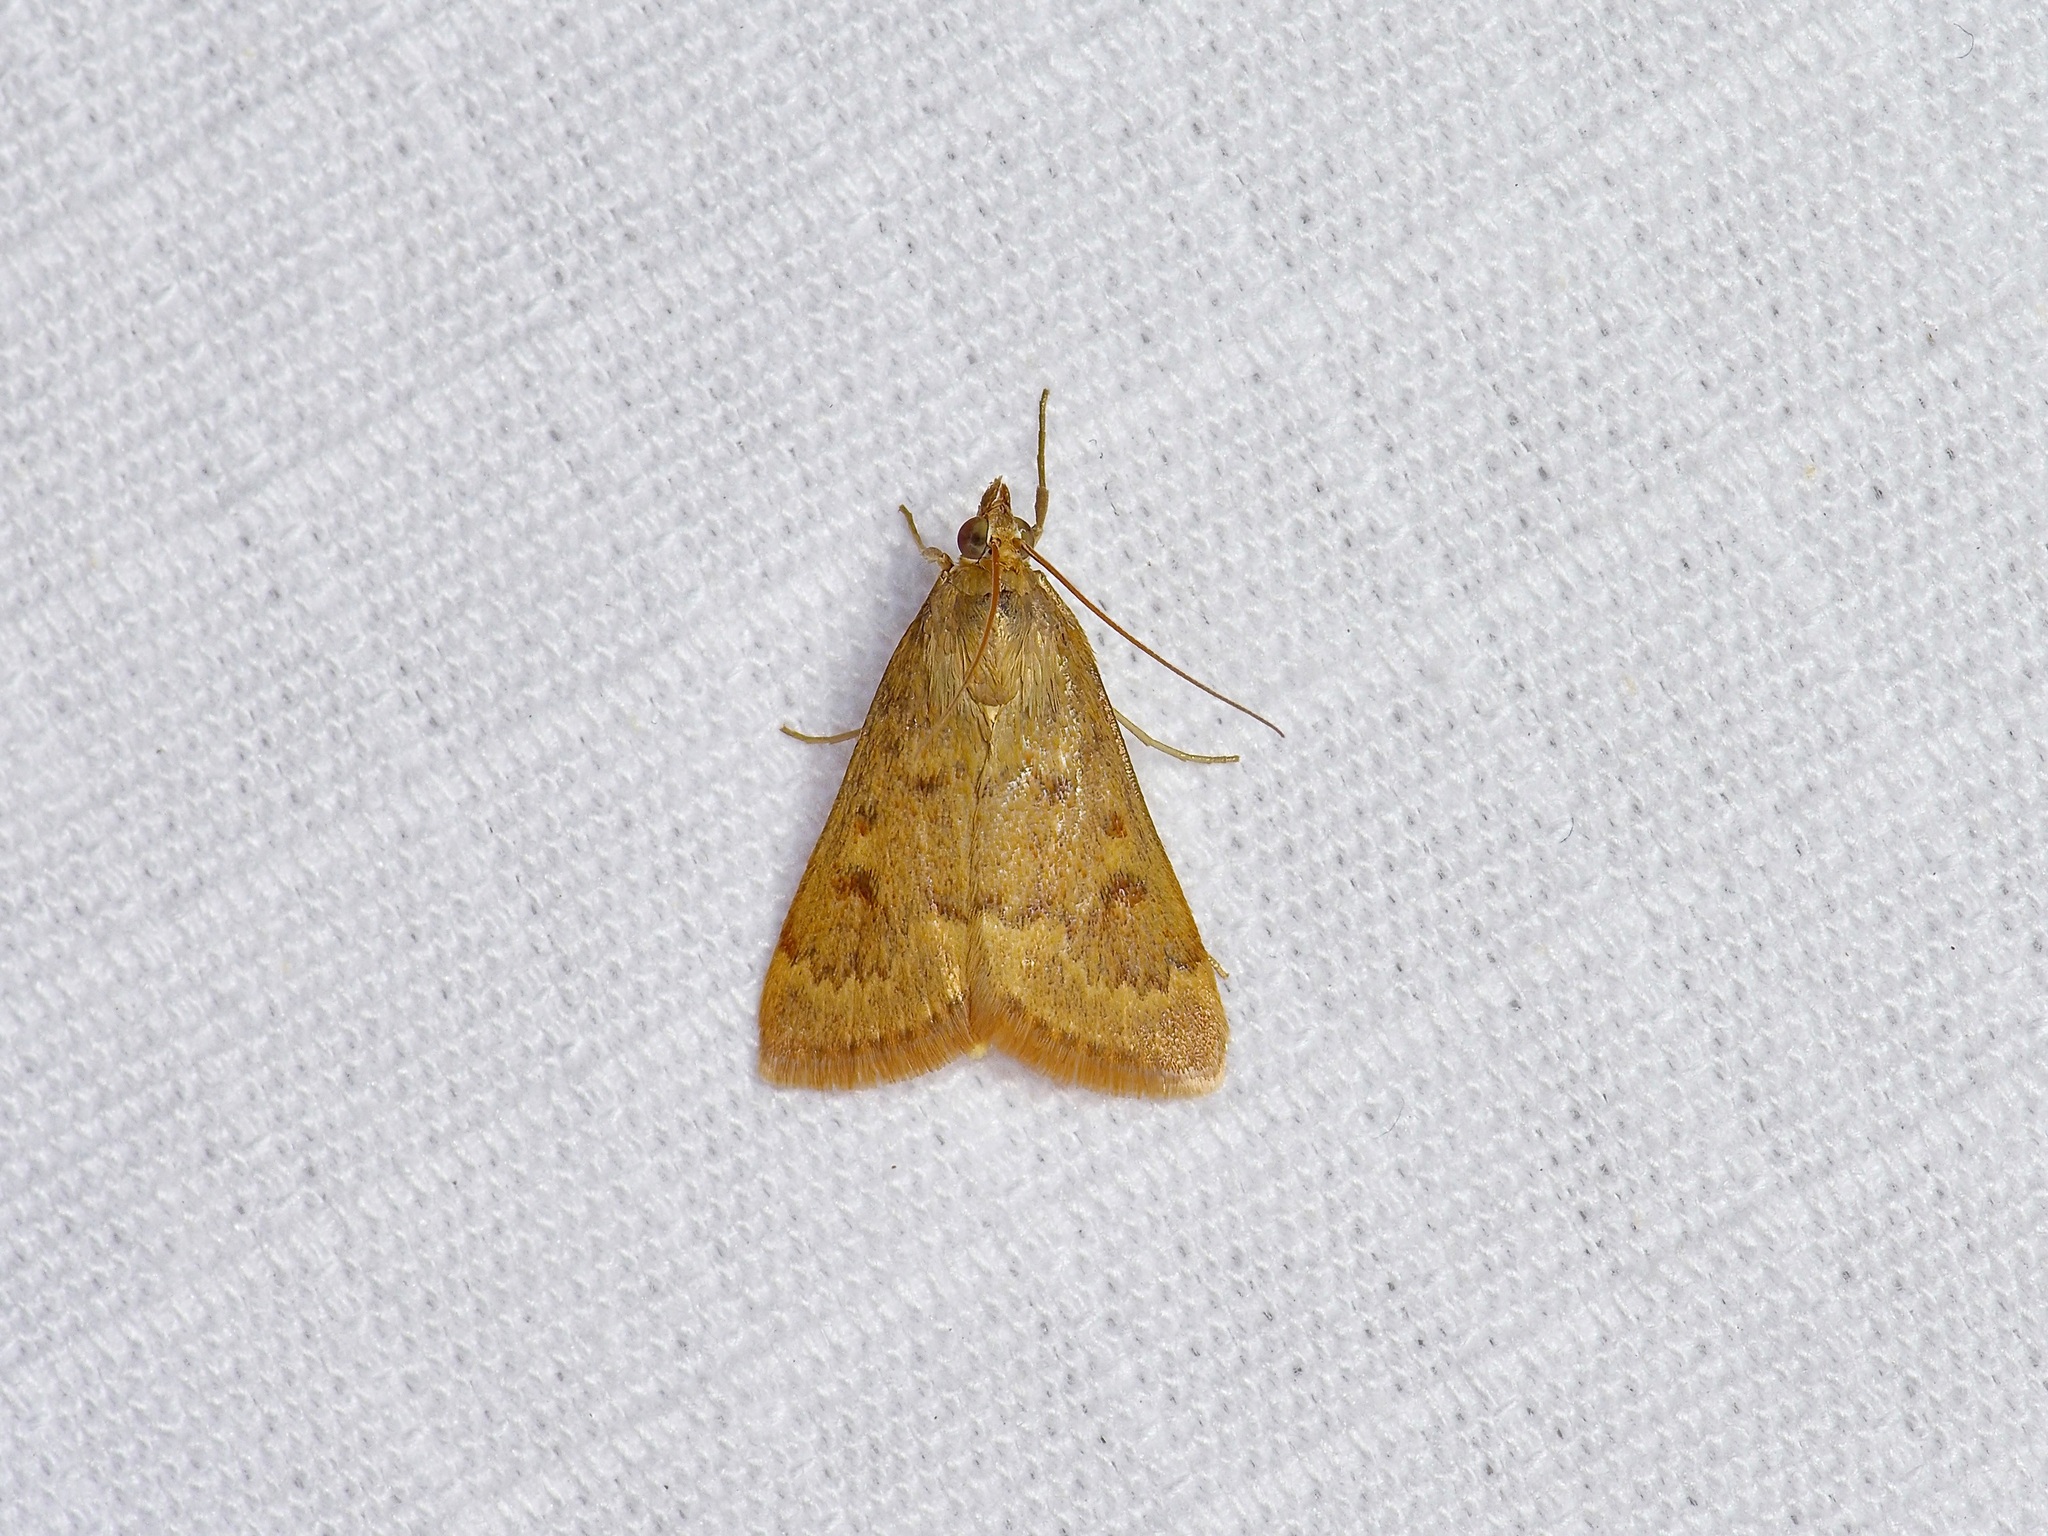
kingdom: Animalia
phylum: Arthropoda
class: Insecta
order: Lepidoptera
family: Crambidae
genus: Achyra
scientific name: Achyra rantalis
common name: Garden webworm
